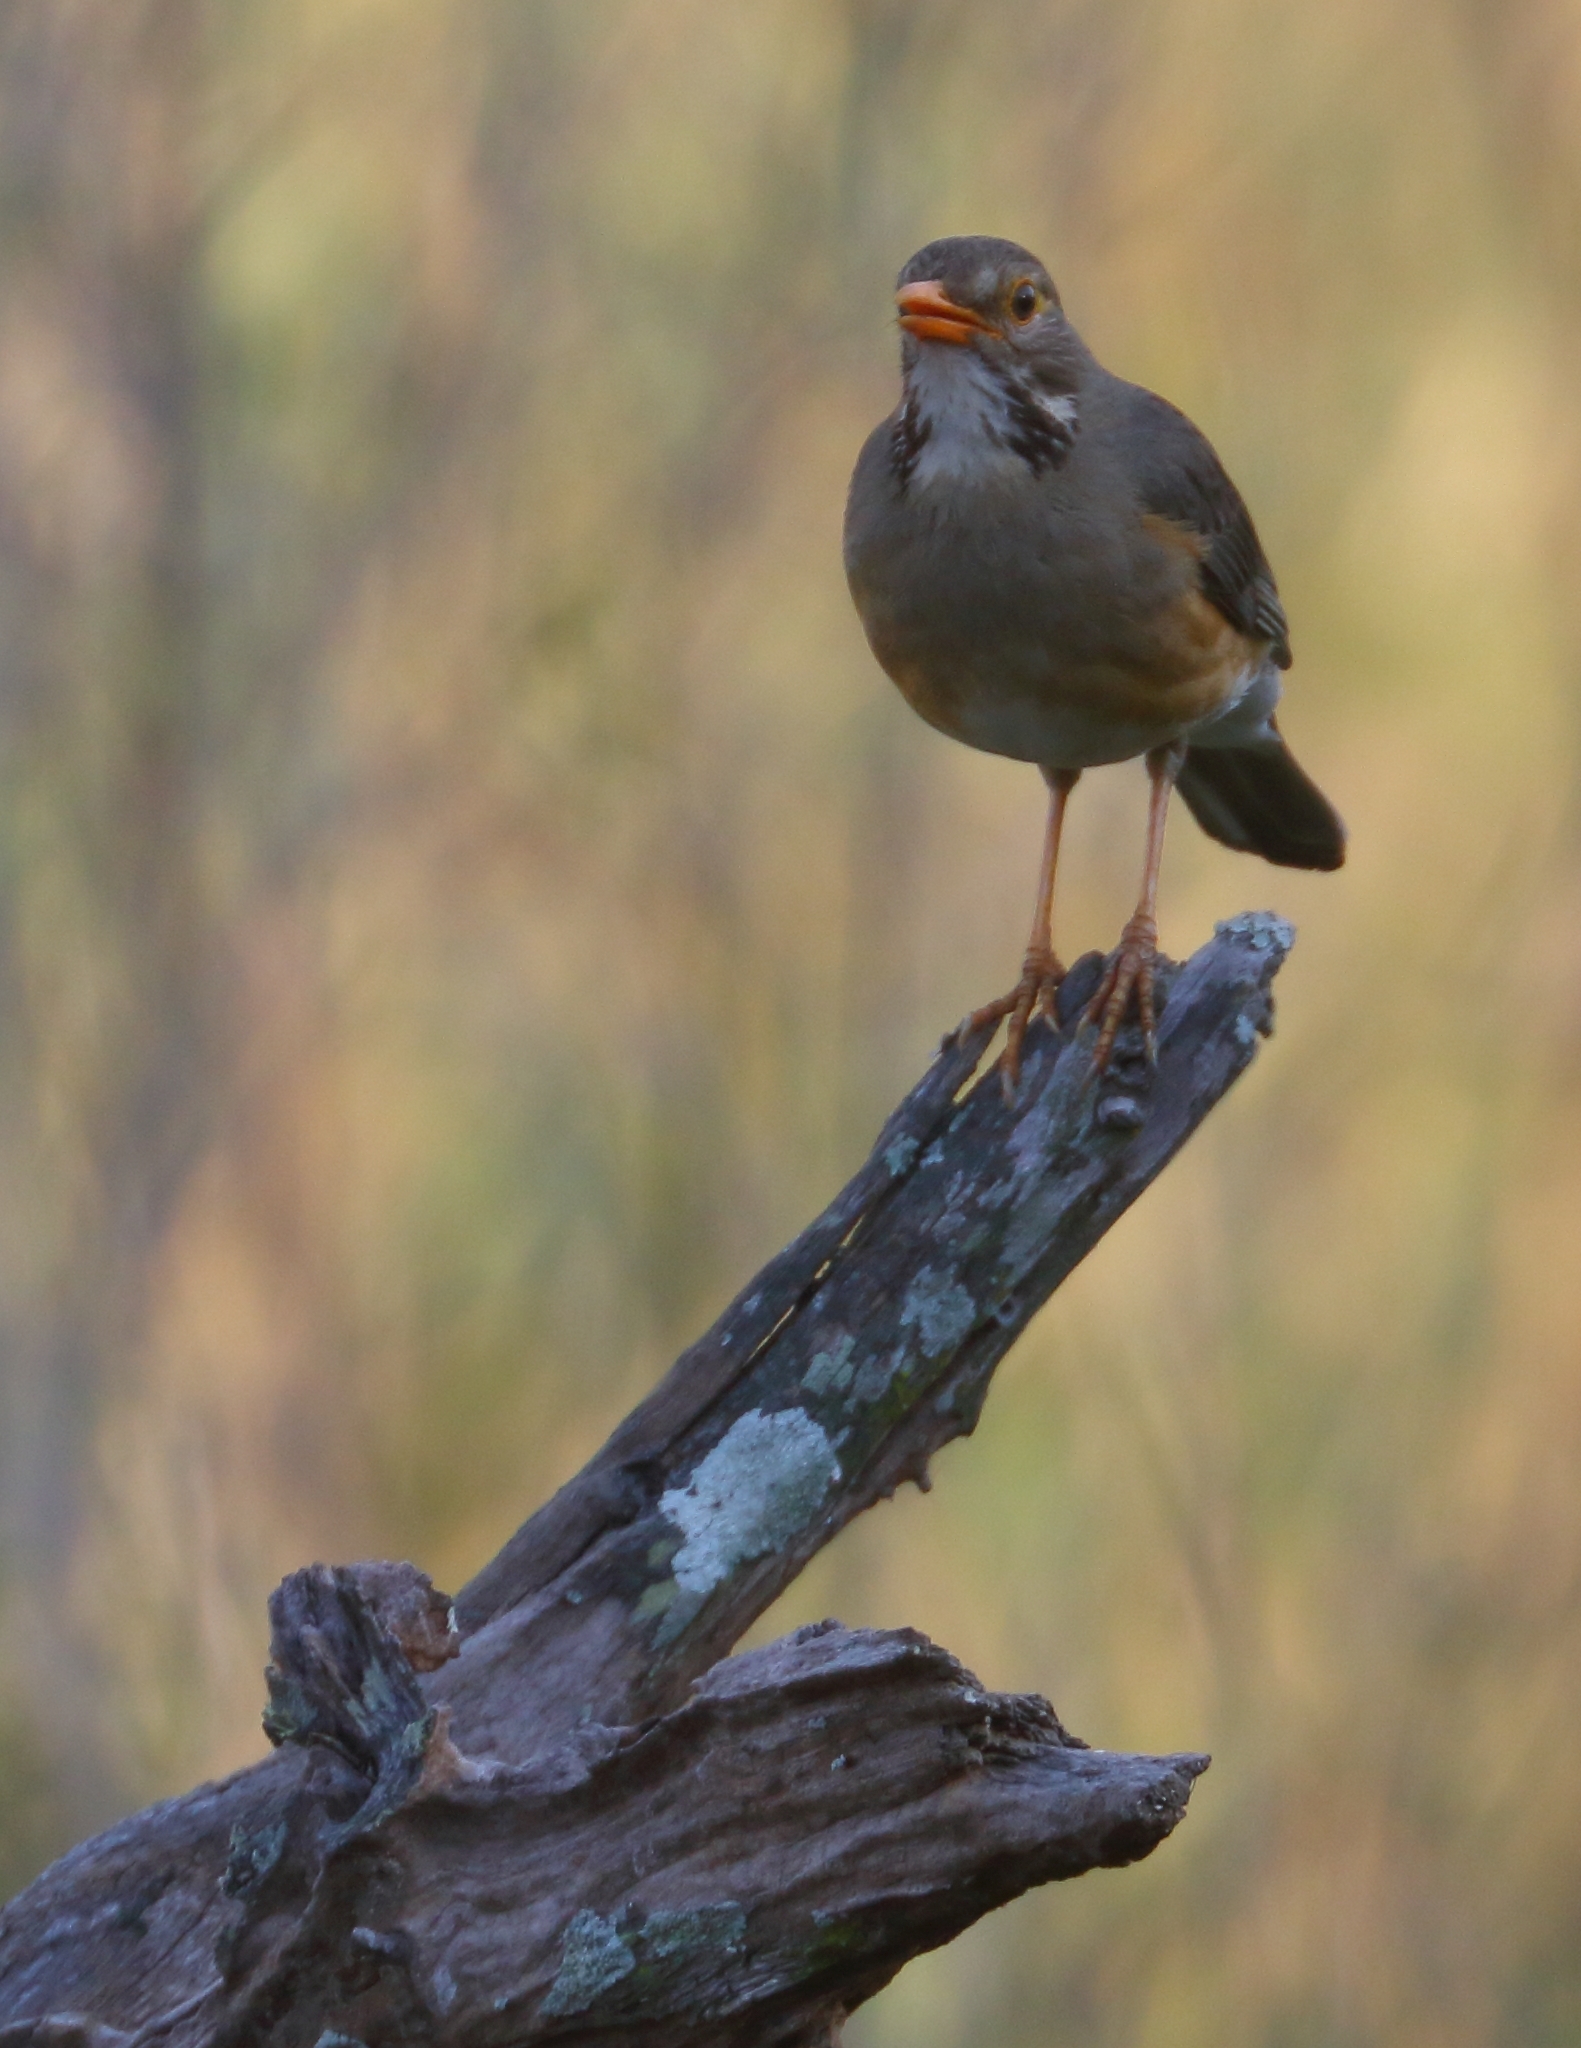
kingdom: Animalia
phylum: Chordata
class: Aves
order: Passeriformes
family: Turdidae
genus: Turdus
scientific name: Turdus libonyana
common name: Kurrichane thrush
